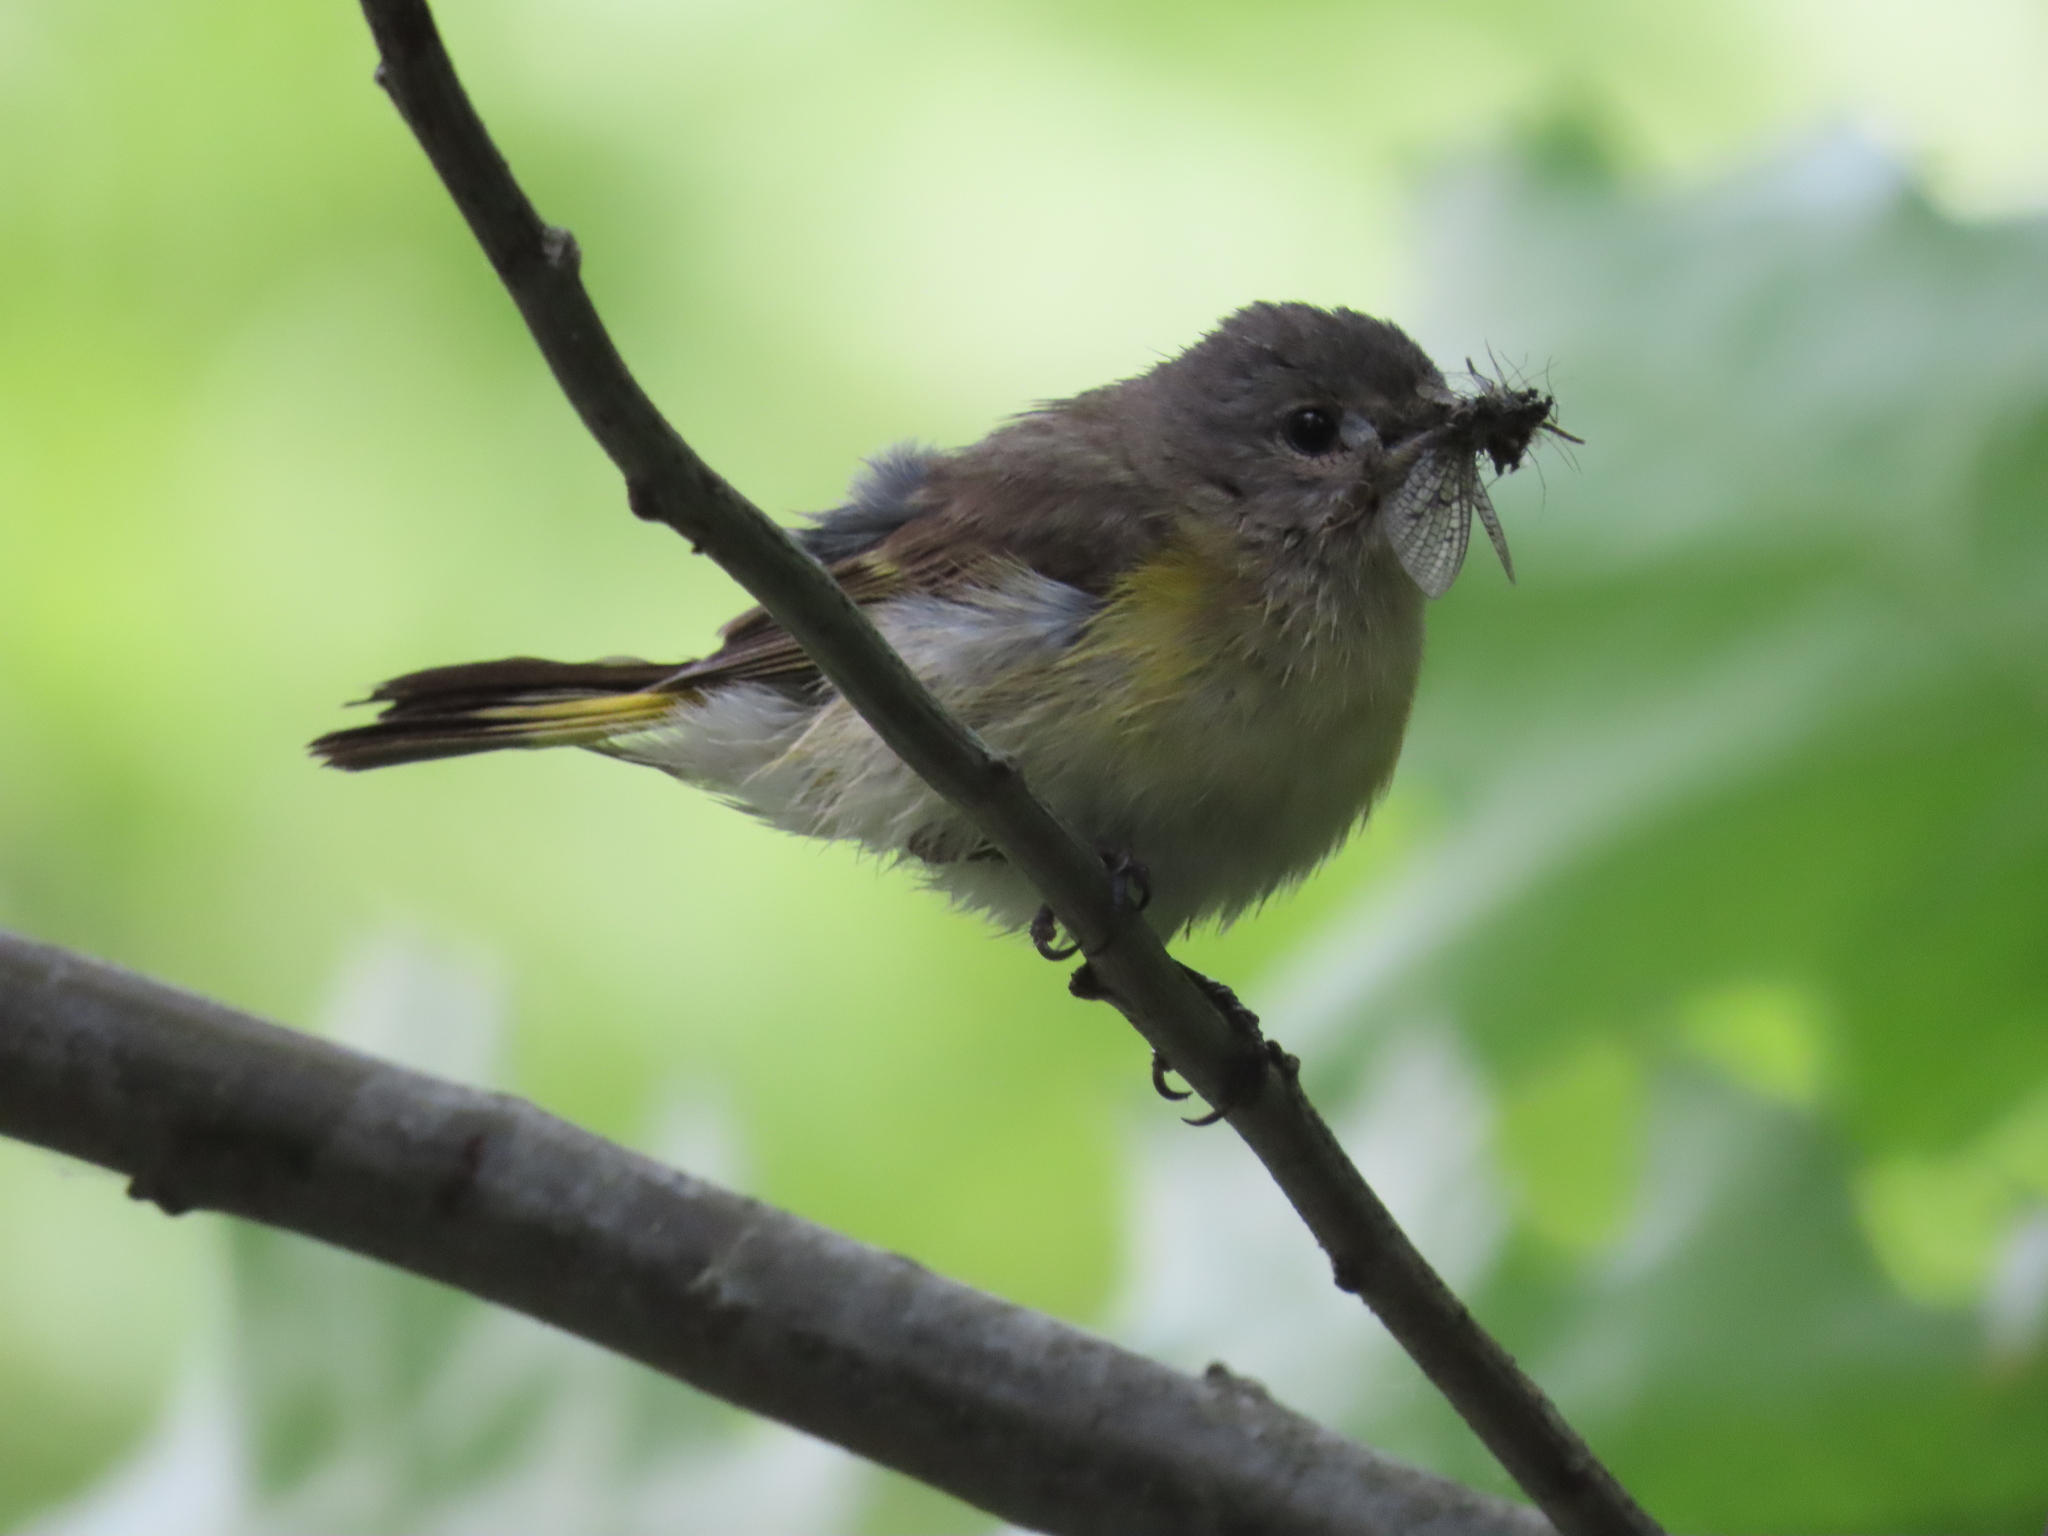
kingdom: Animalia
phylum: Chordata
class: Aves
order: Passeriformes
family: Parulidae
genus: Setophaga
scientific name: Setophaga ruticilla
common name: American redstart
